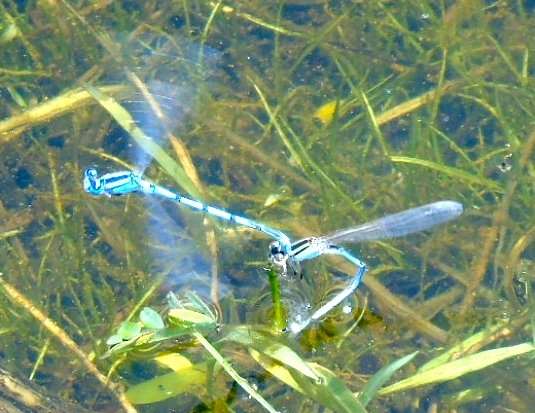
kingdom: Animalia
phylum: Arthropoda
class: Insecta
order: Odonata
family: Coenagrionidae
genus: Enallagma
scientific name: Enallagma
